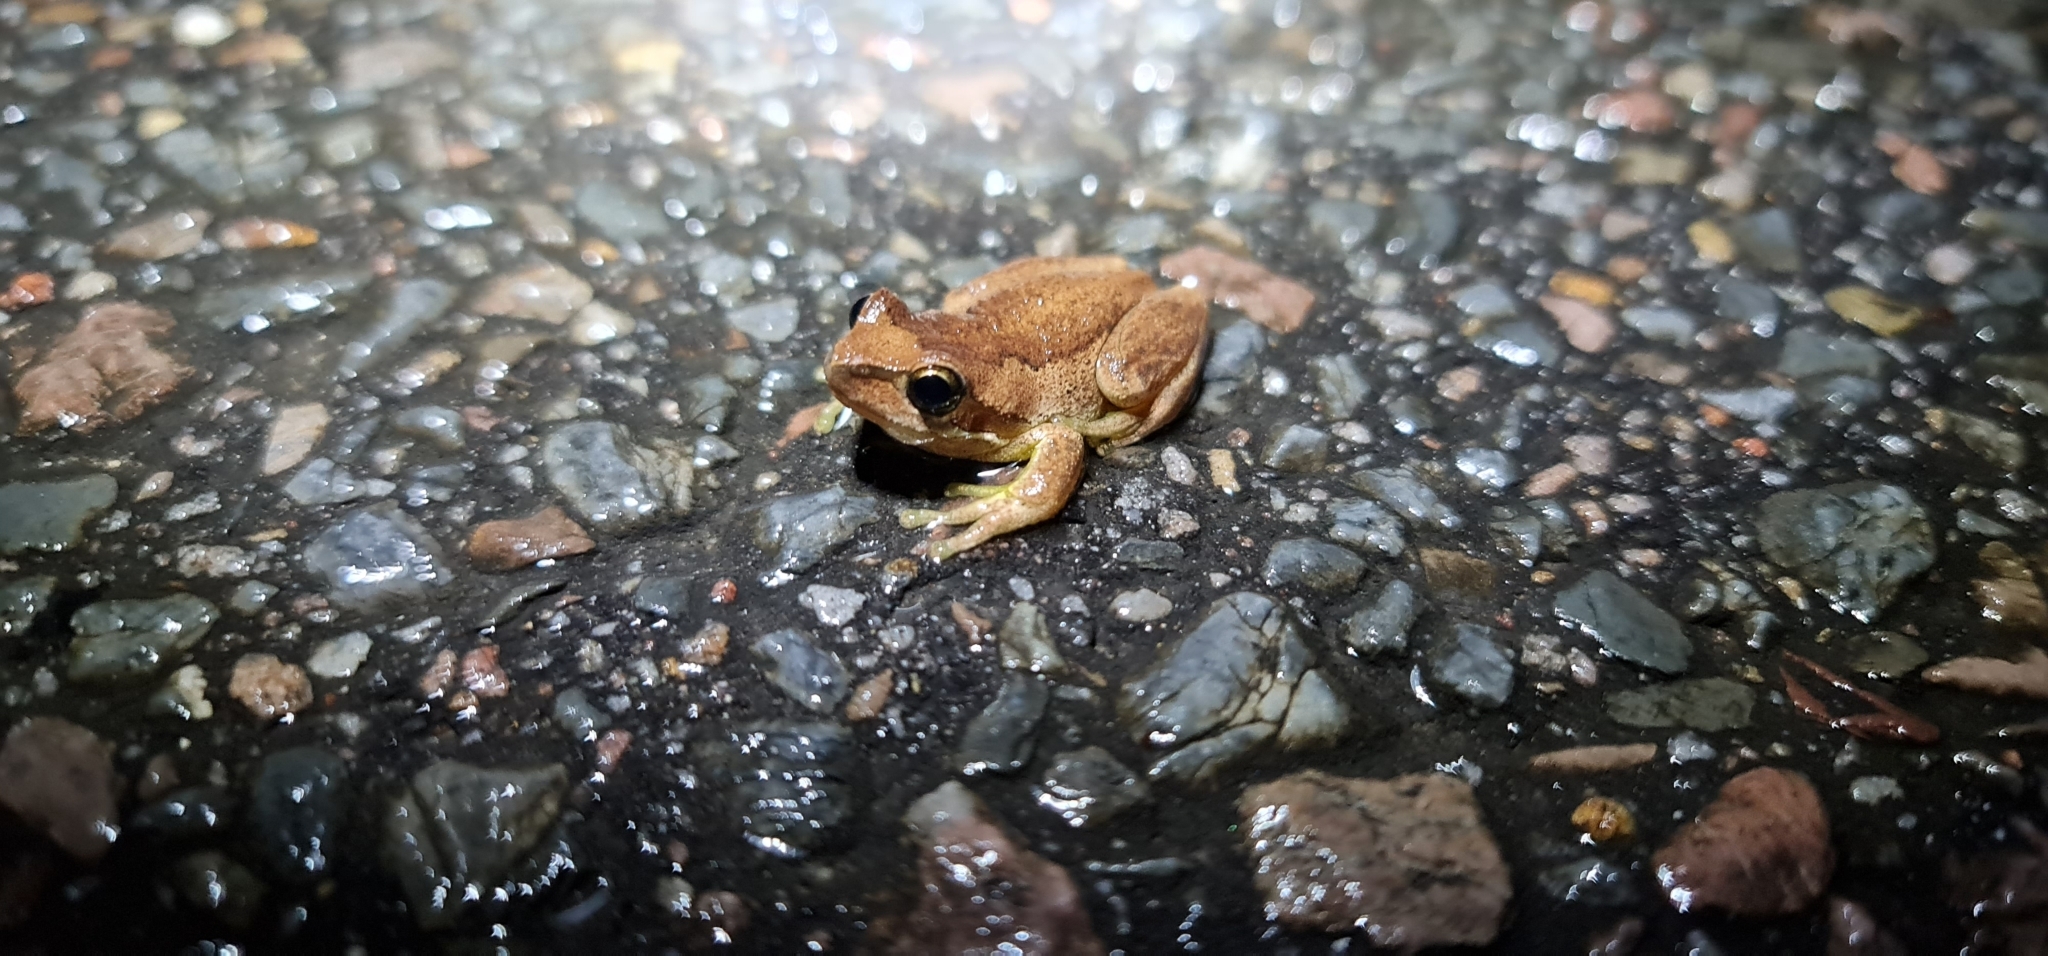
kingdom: Animalia
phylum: Chordata
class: Amphibia
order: Anura
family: Pelodryadidae
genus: Litoria
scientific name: Litoria
